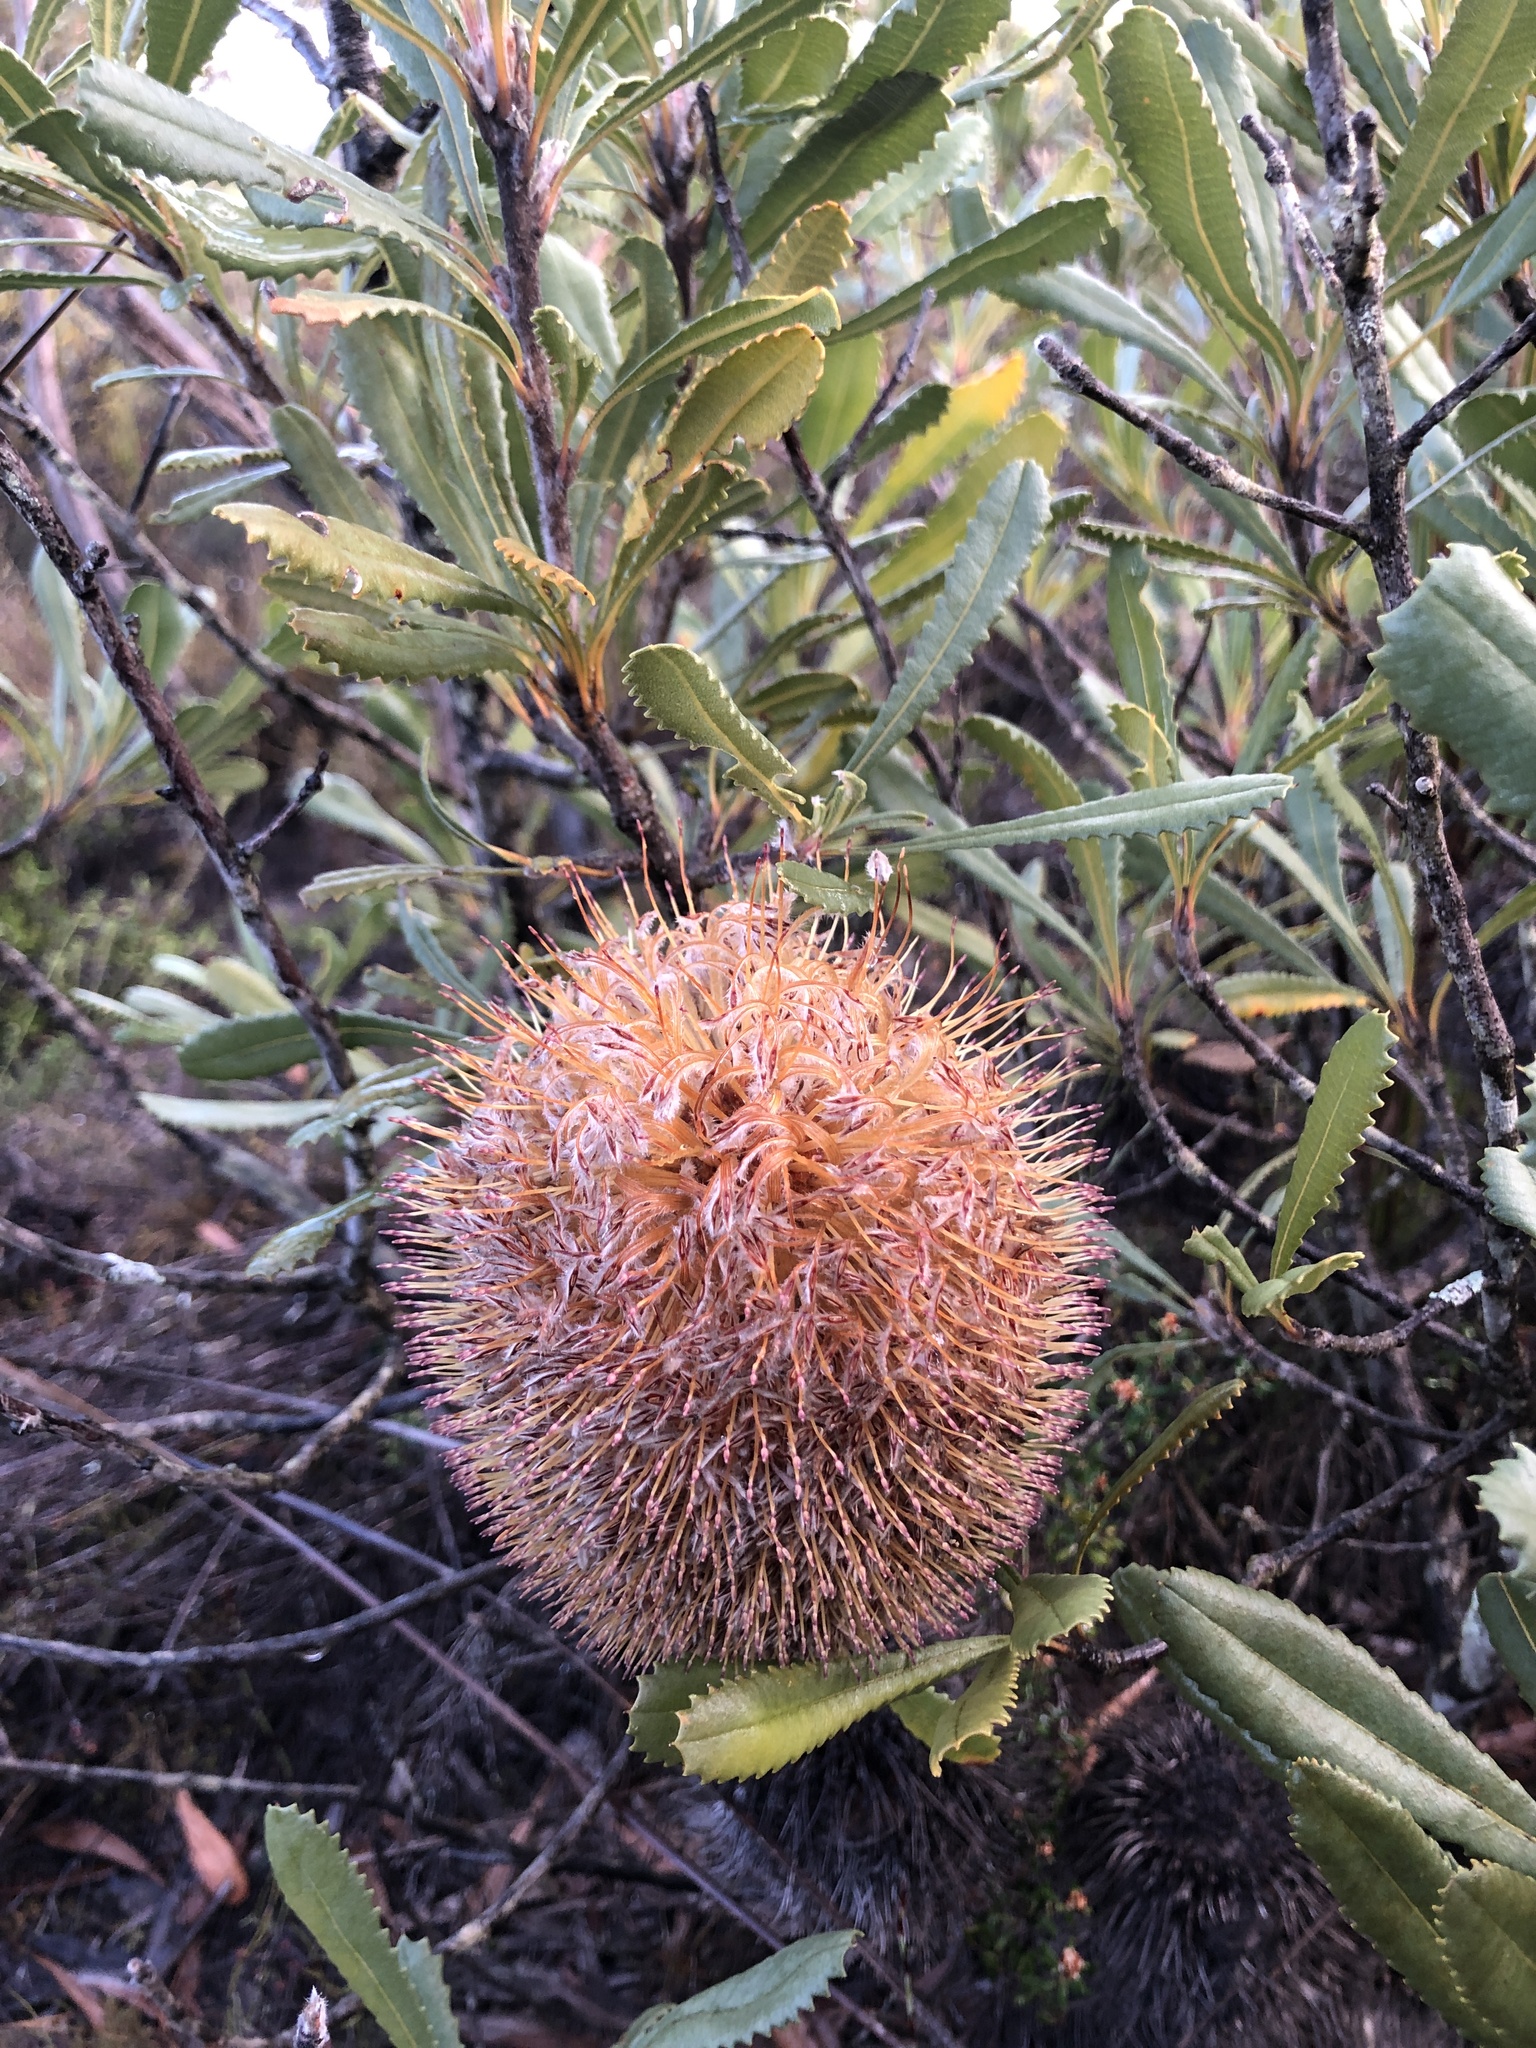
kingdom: Plantae
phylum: Tracheophyta
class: Magnoliopsida
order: Proteales
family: Proteaceae
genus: Banksia
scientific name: Banksia ornata
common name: Desert banksia
